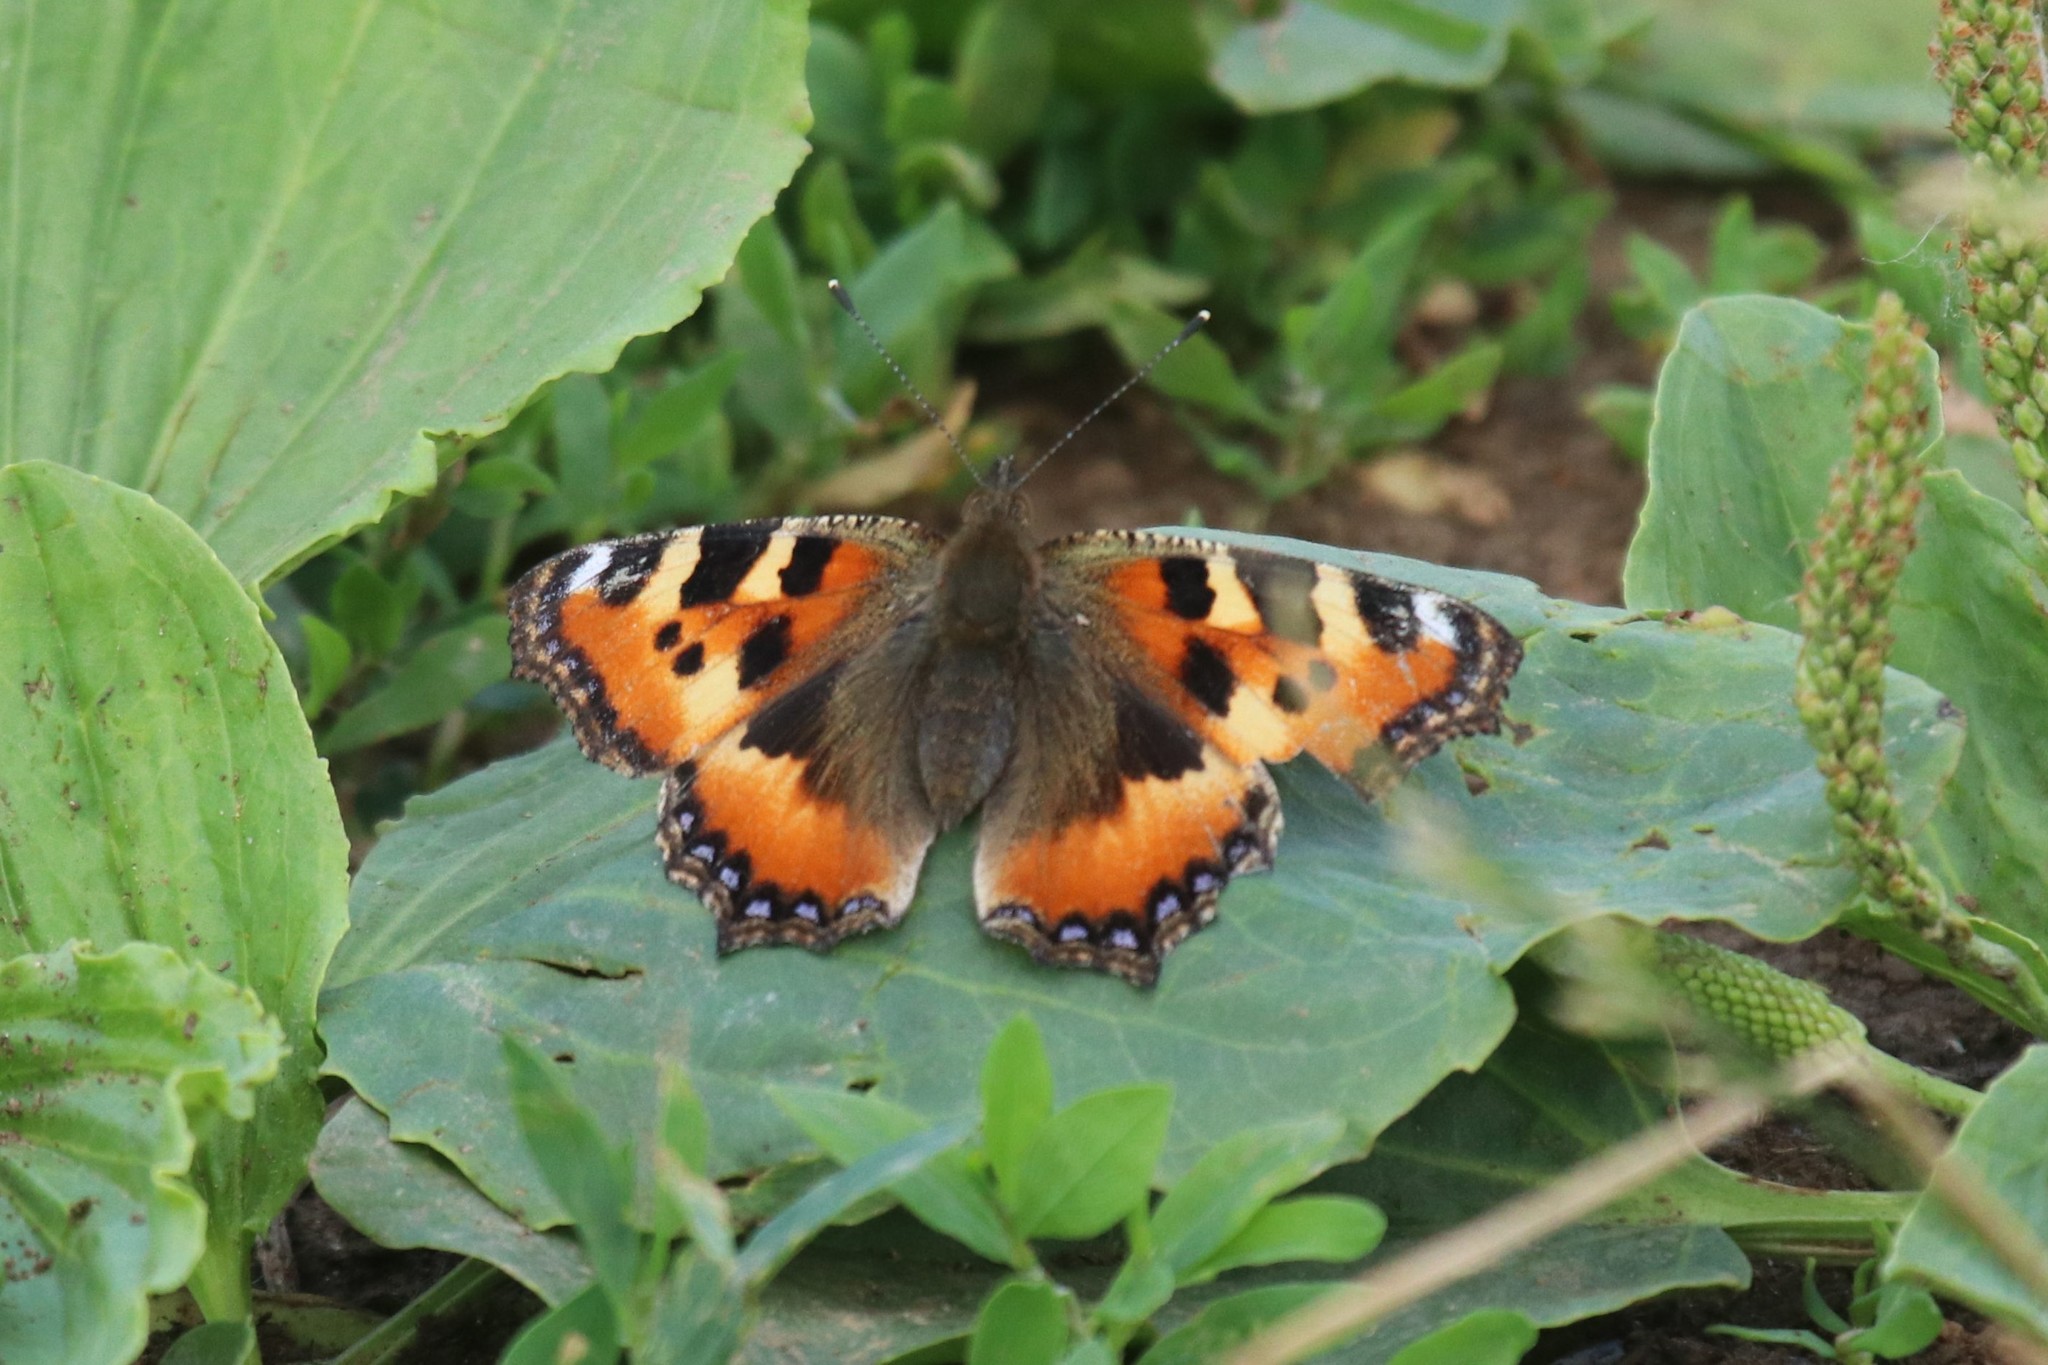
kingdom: Animalia
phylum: Arthropoda
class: Insecta
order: Lepidoptera
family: Nymphalidae
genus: Aglais
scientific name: Aglais urticae
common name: Small tortoiseshell
